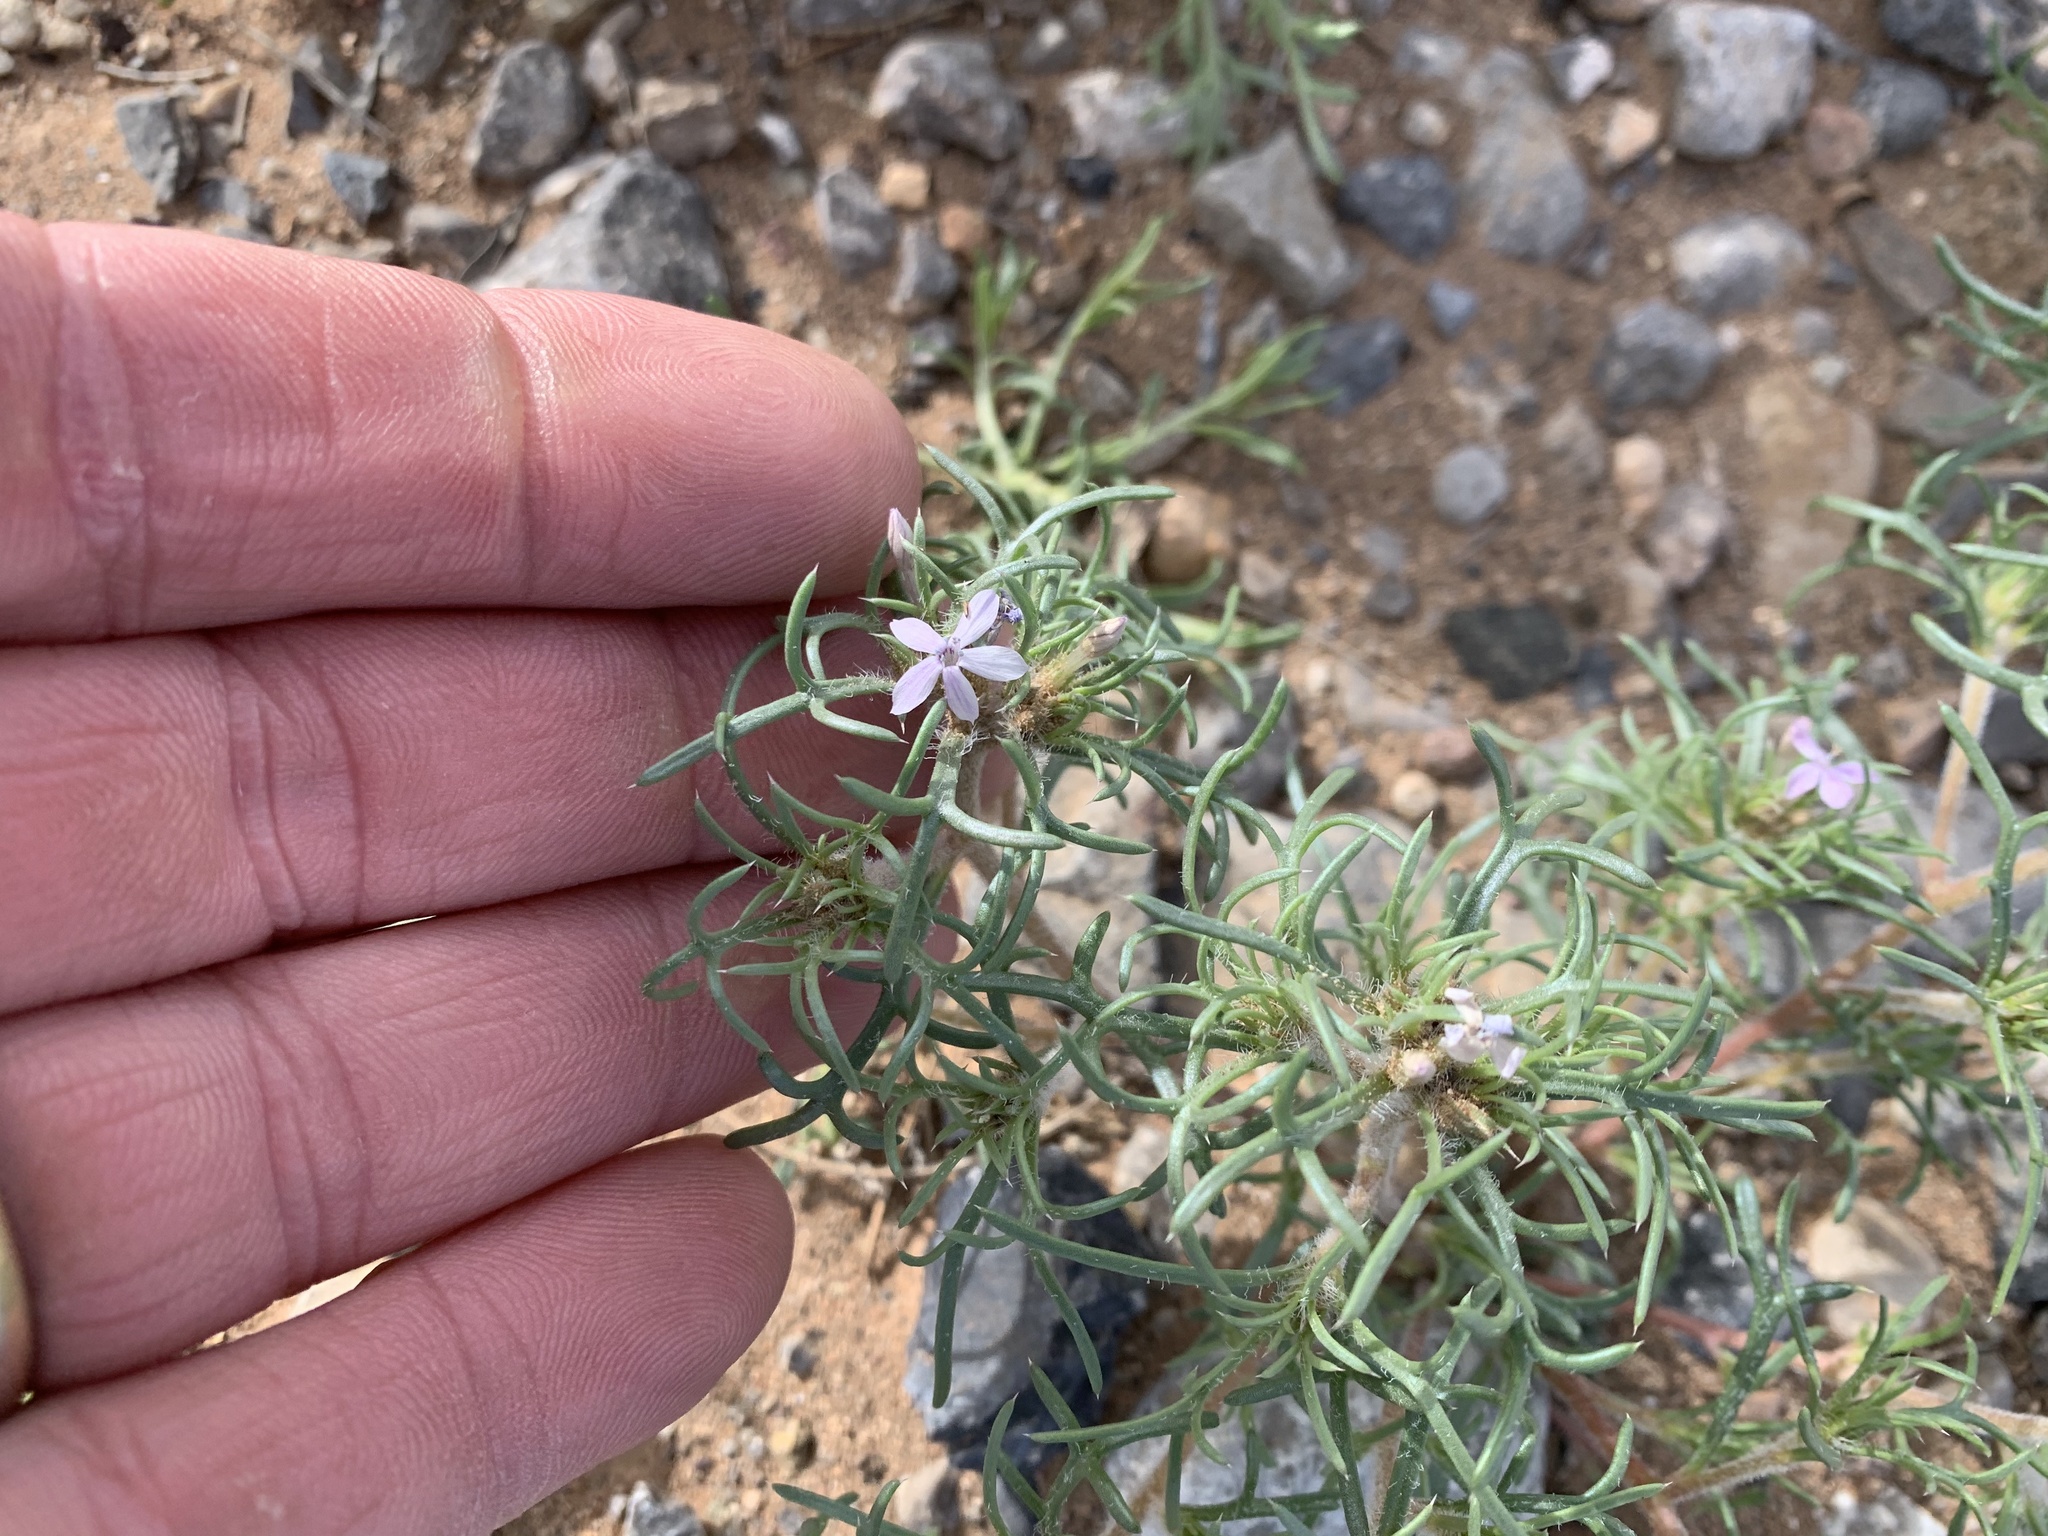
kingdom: Plantae
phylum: Tracheophyta
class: Magnoliopsida
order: Ericales
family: Polemoniaceae
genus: Ipomopsis
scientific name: Ipomopsis pumila
